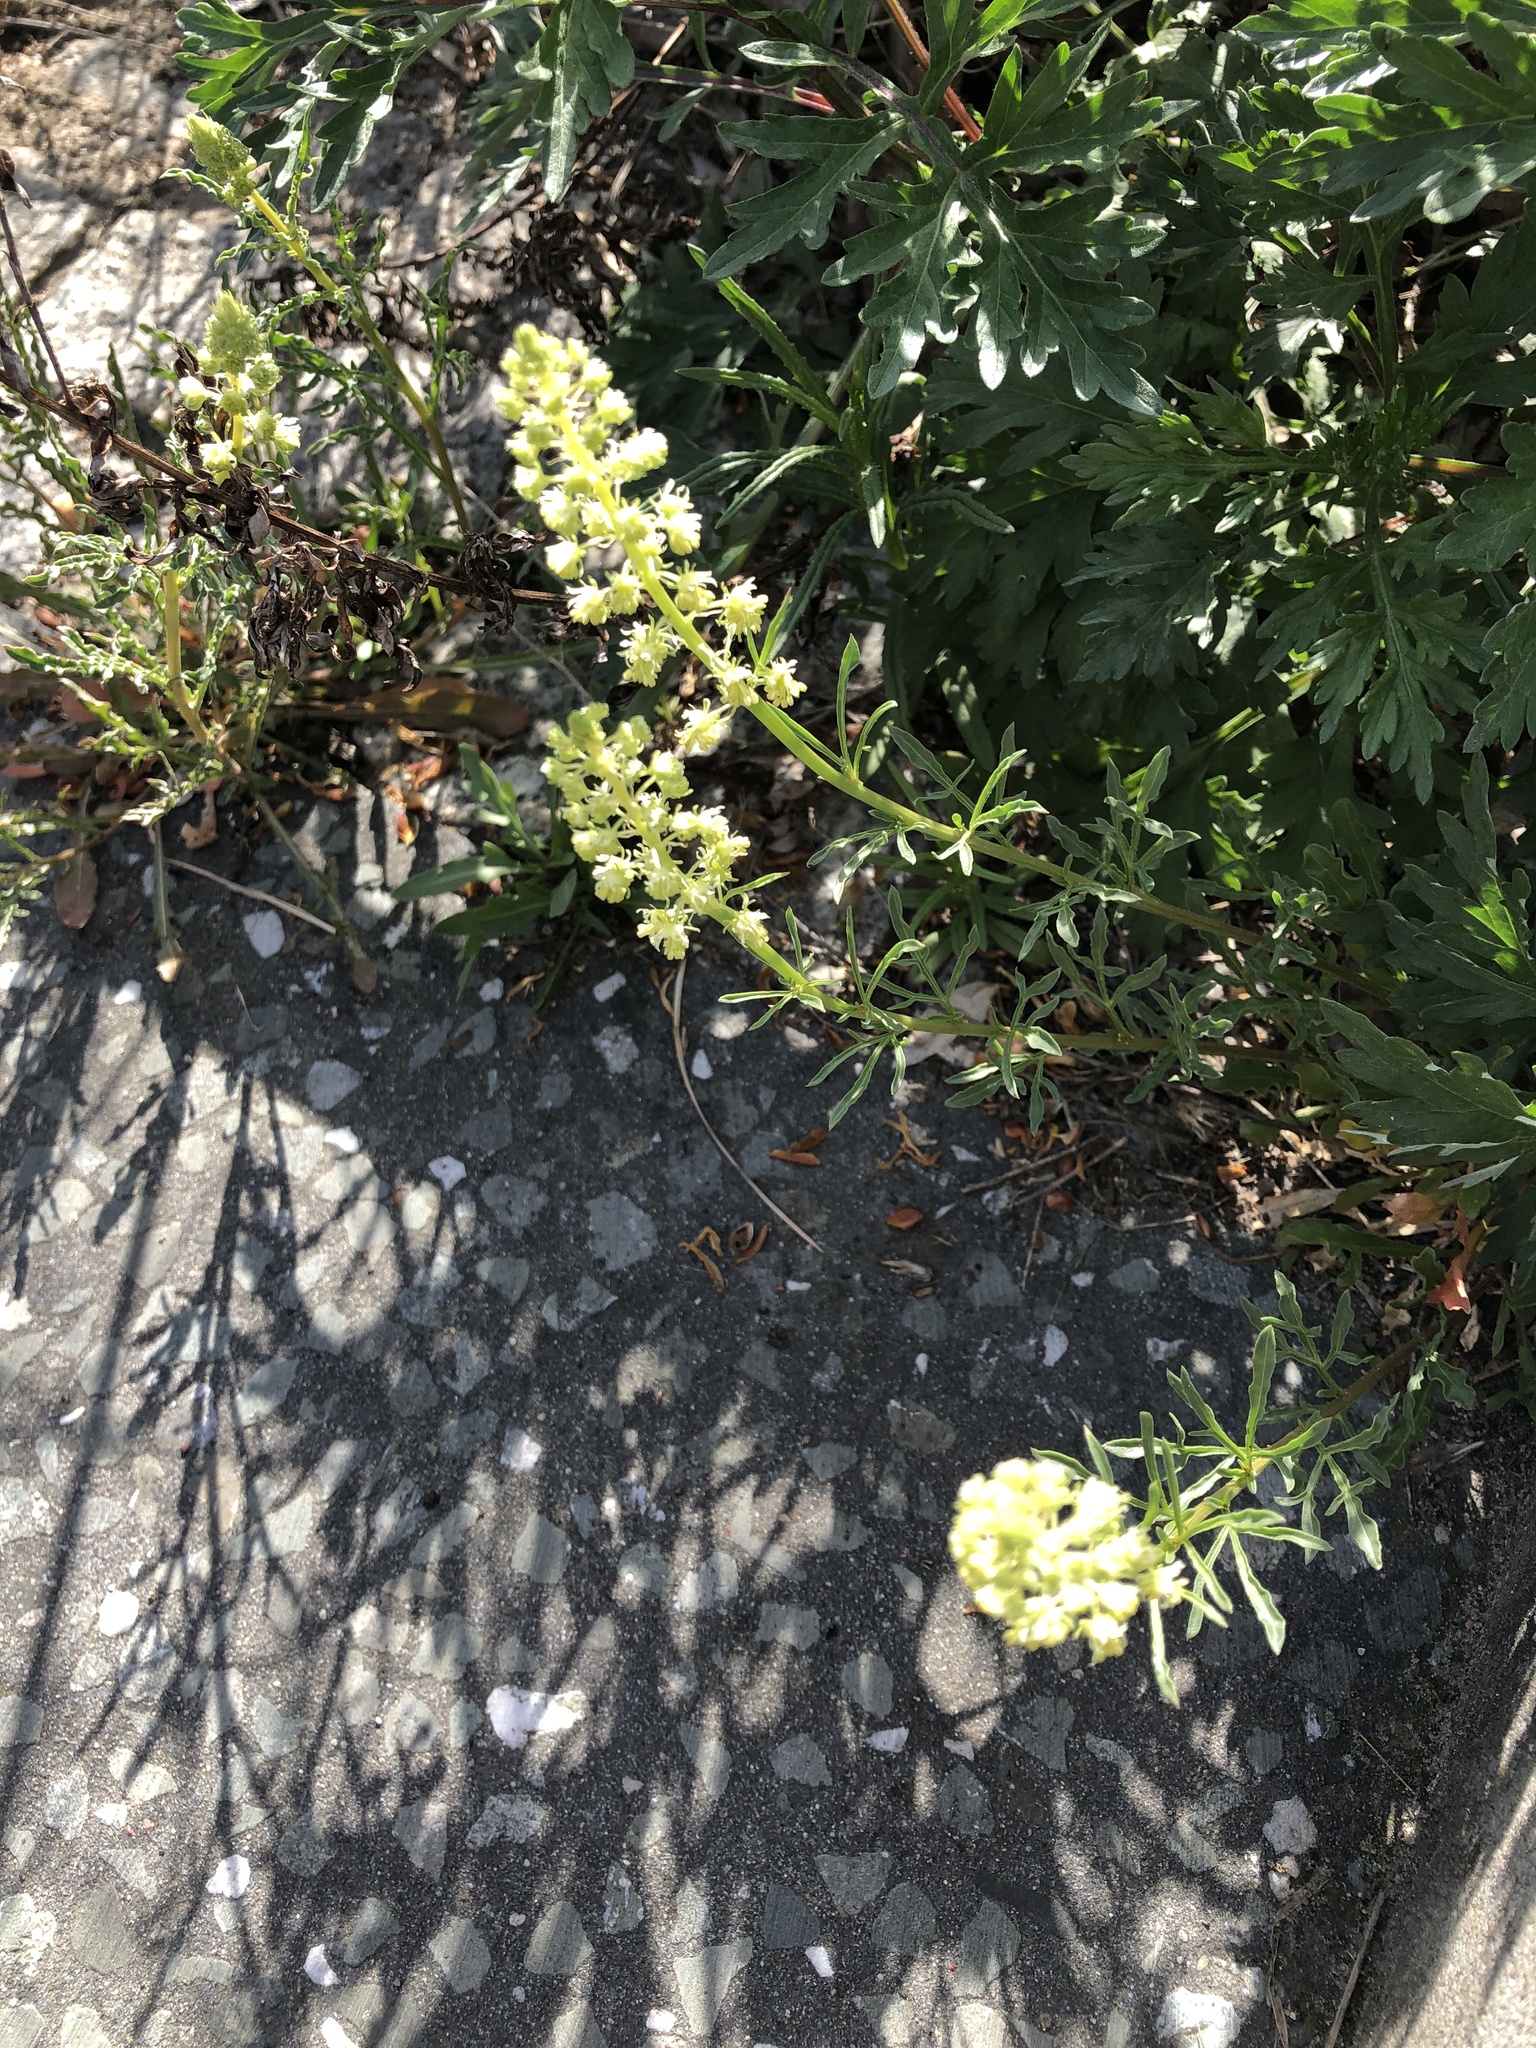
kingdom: Plantae
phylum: Tracheophyta
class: Magnoliopsida
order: Brassicales
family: Resedaceae
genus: Reseda
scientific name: Reseda lutea
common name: Wild mignonette
